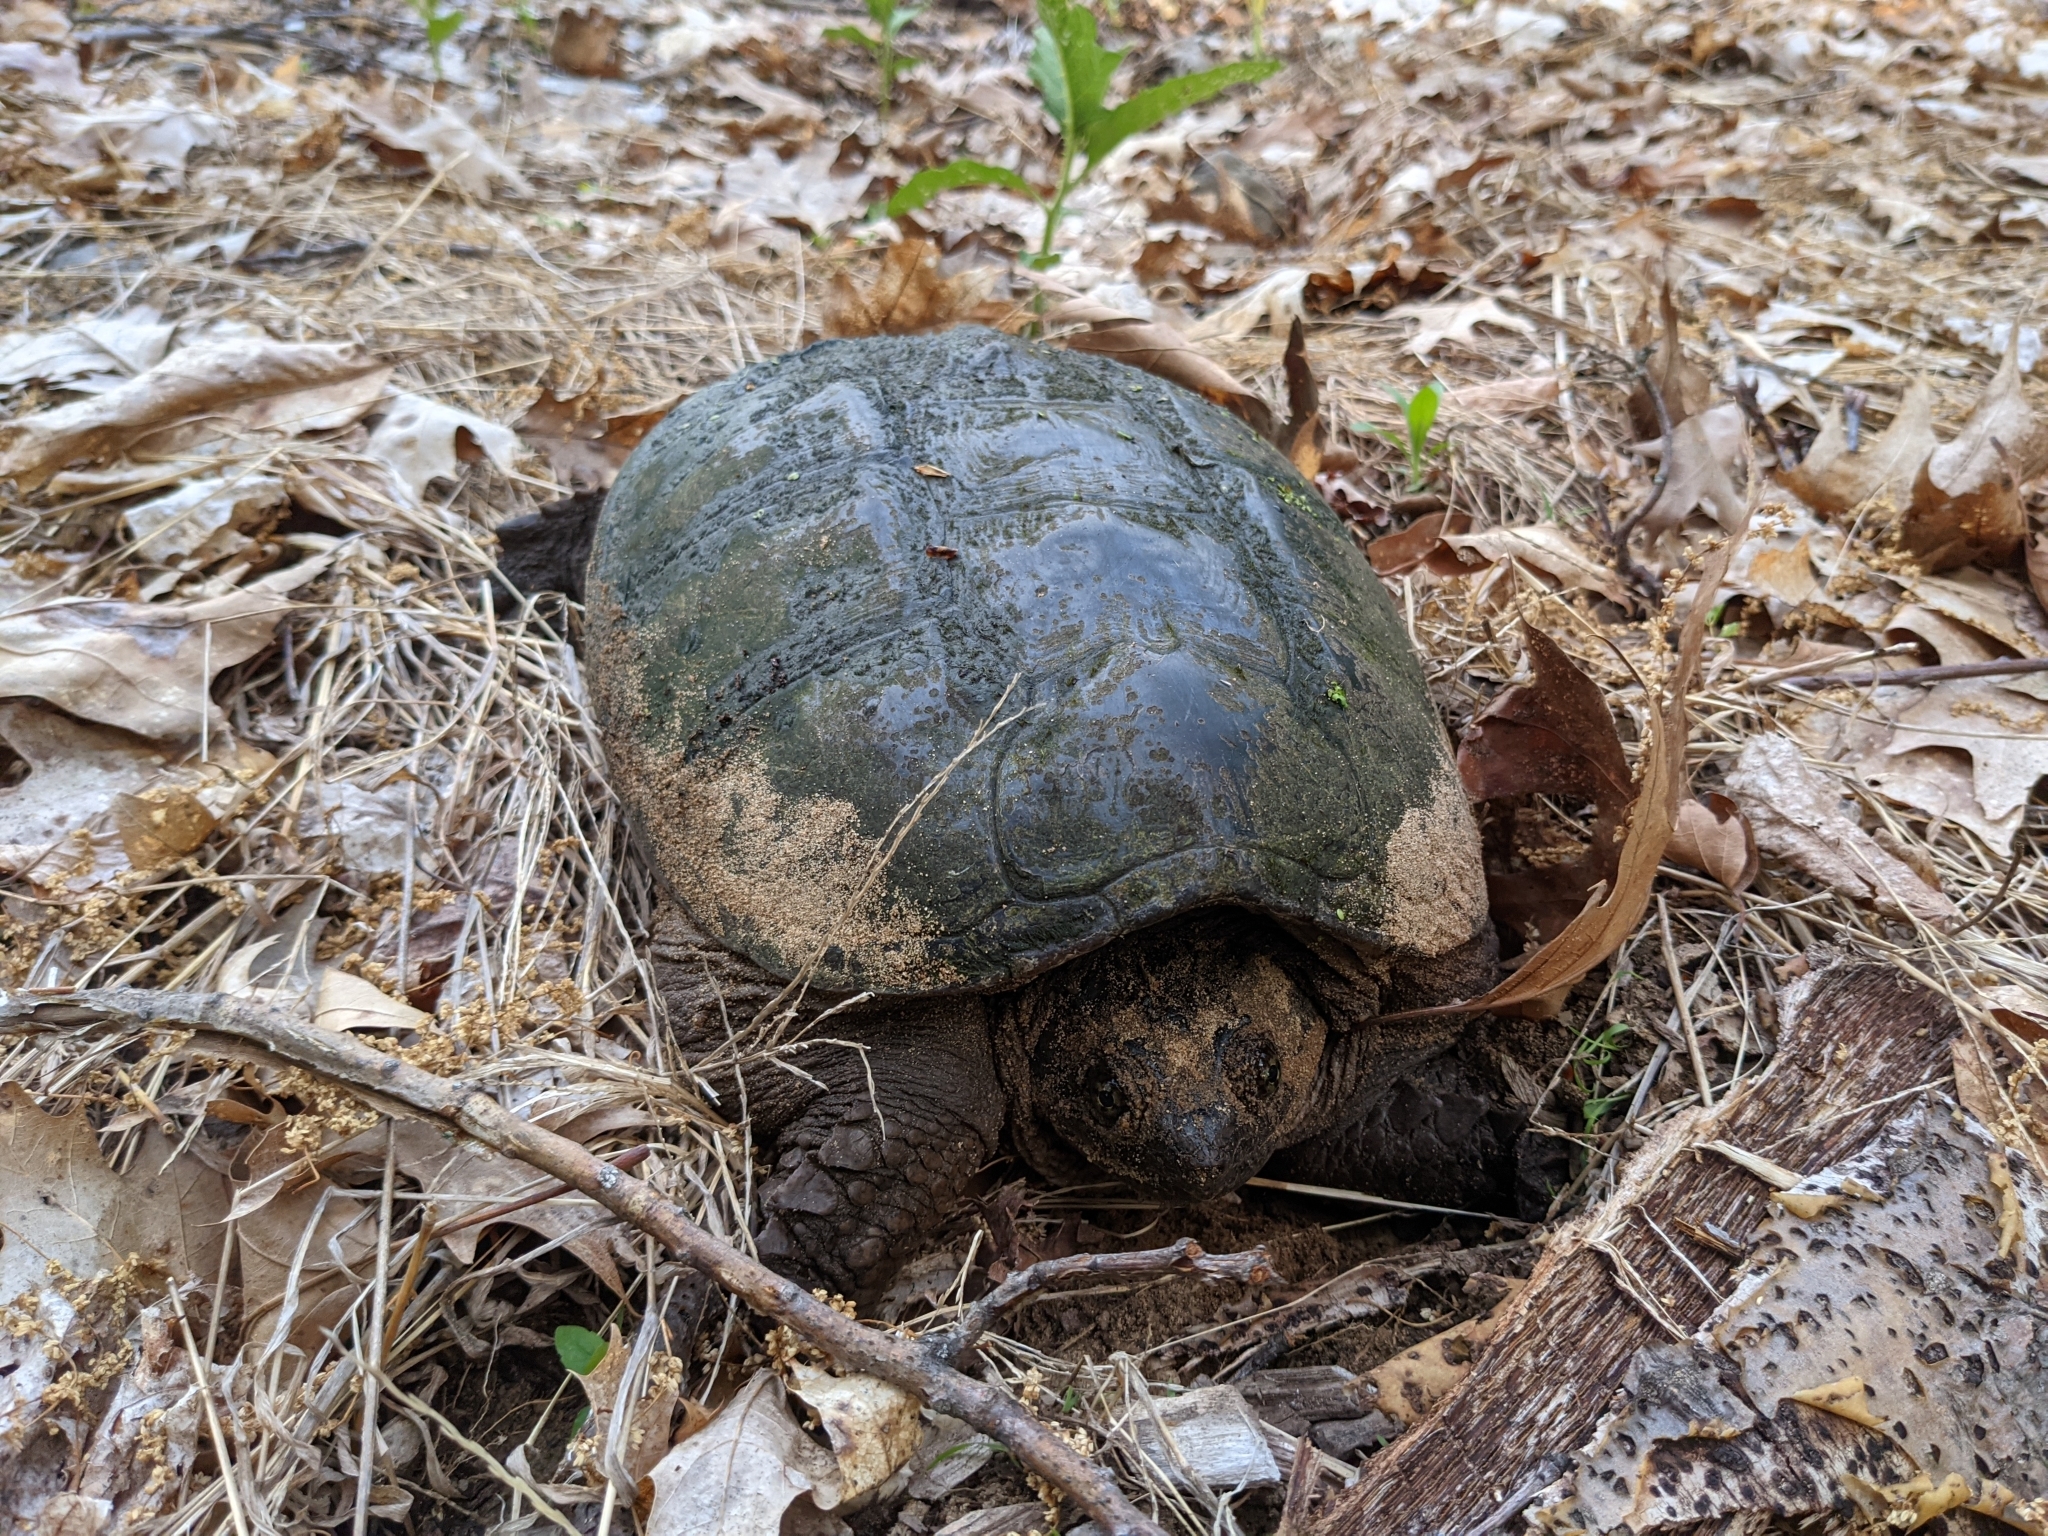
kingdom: Animalia
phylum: Chordata
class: Testudines
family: Chelydridae
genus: Chelydra
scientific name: Chelydra serpentina
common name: Common snapping turtle
